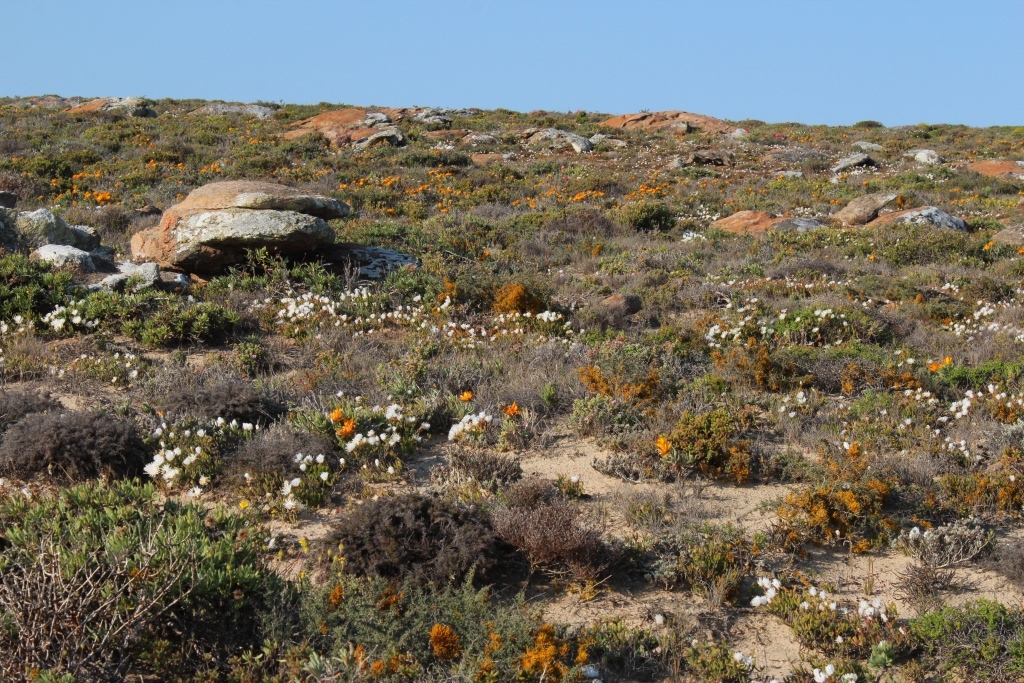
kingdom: Fungi
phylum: Ascomycota
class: Lecanoromycetes
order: Teloschistales
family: Teloschistaceae
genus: Dufourea
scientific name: Dufourea flammea
